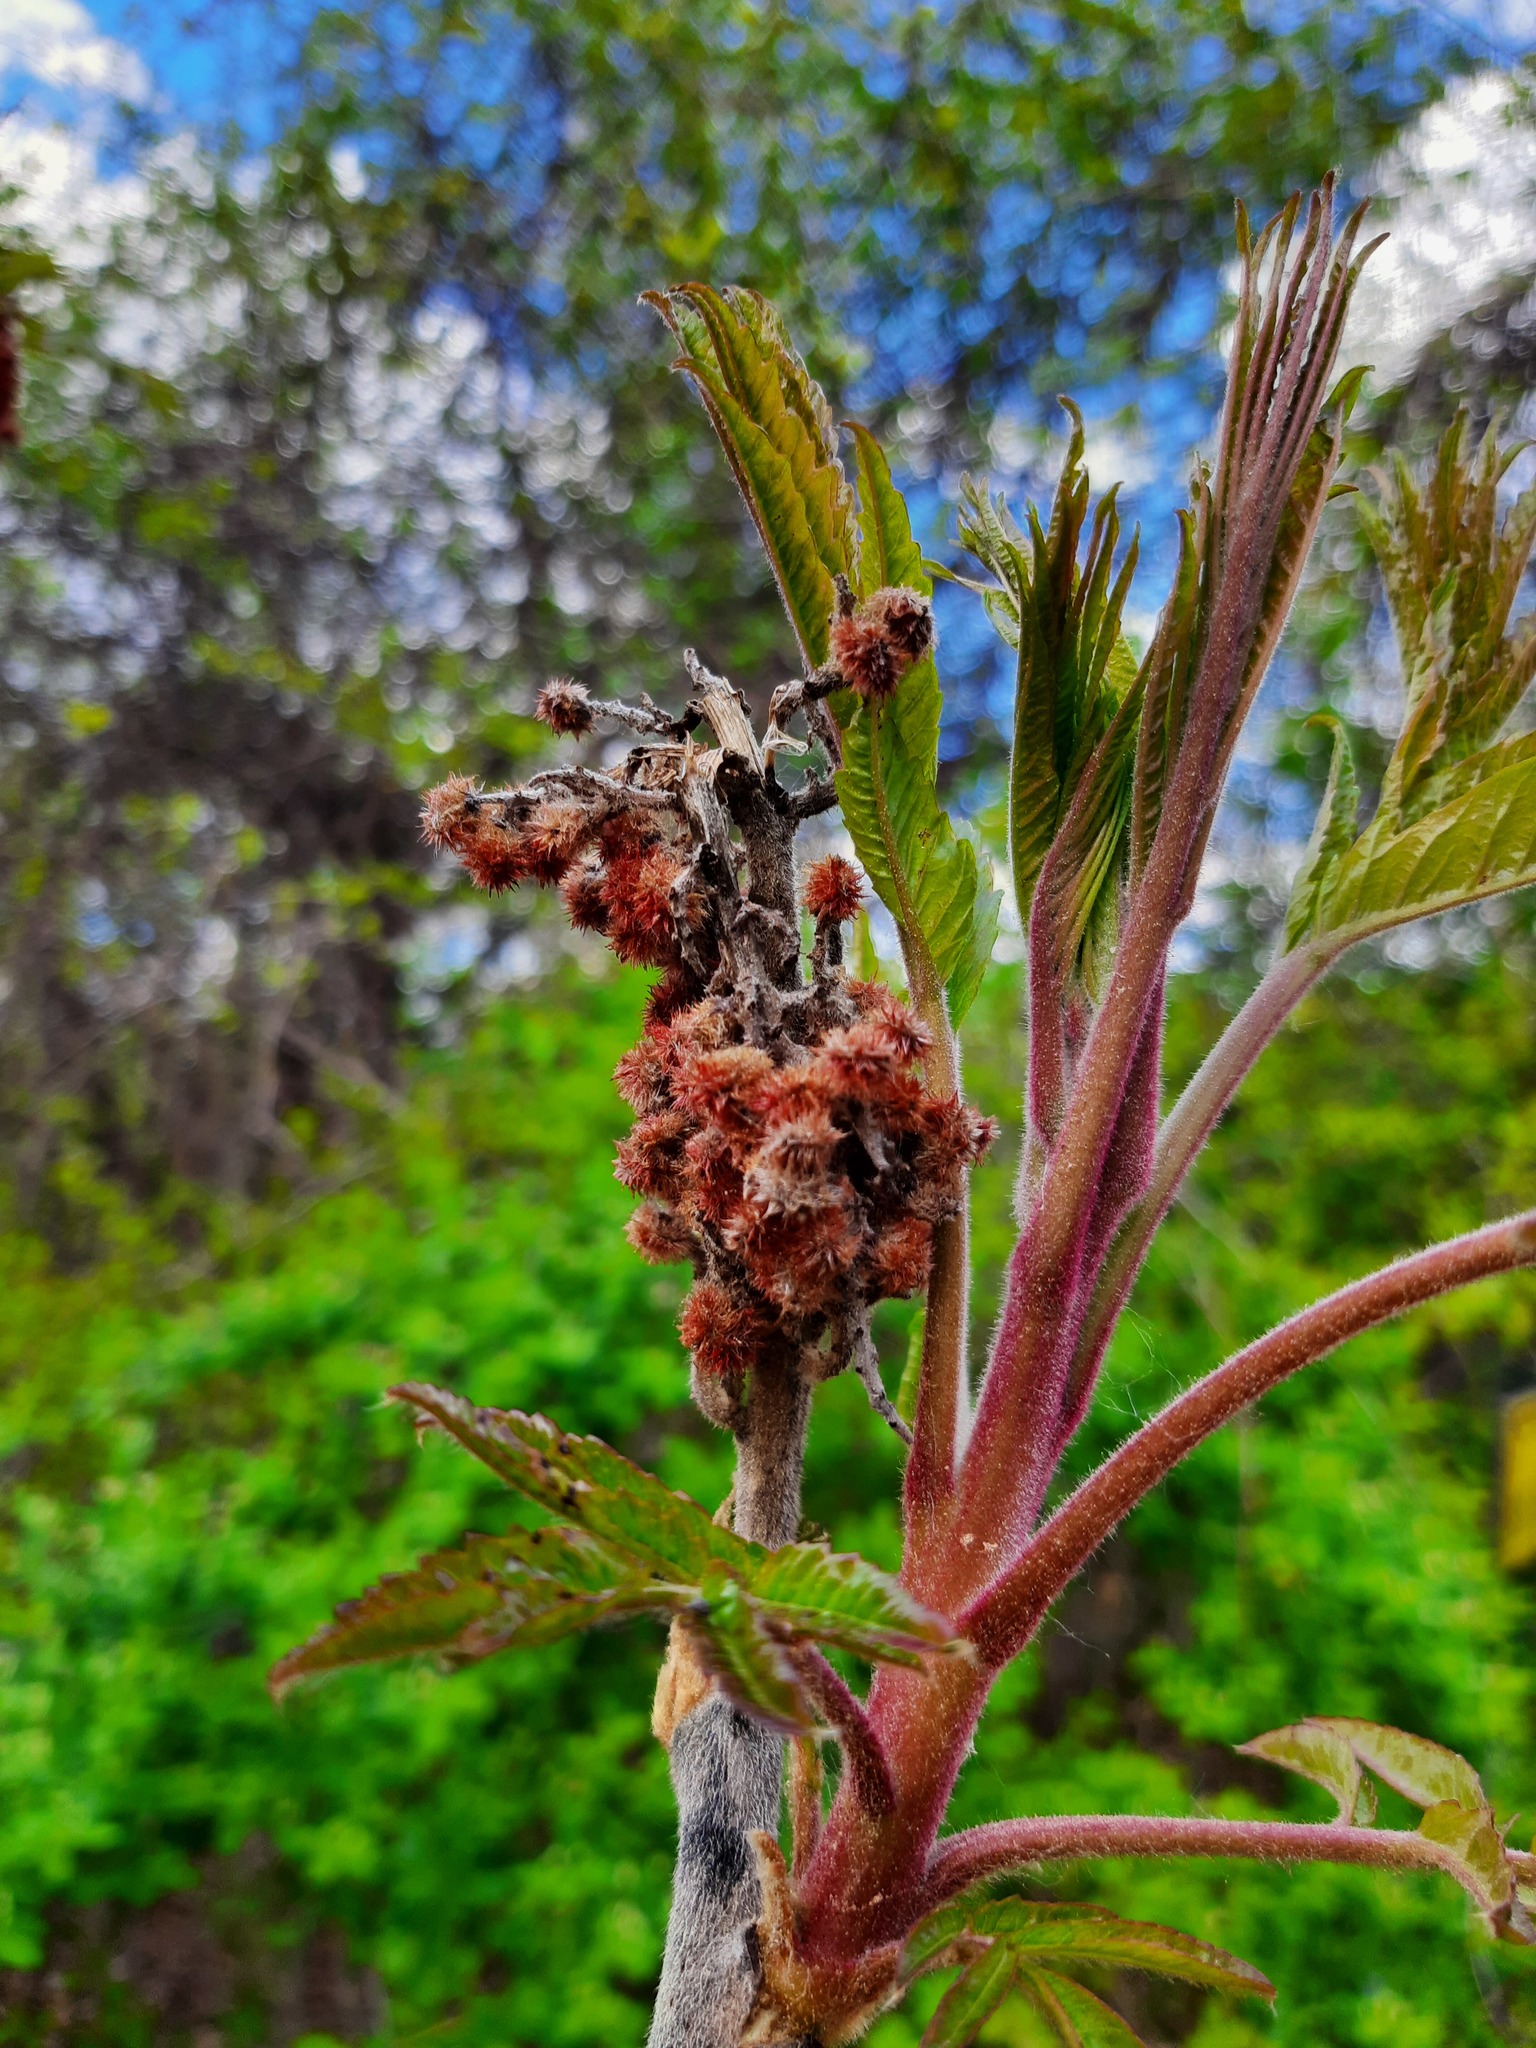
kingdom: Plantae
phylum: Tracheophyta
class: Magnoliopsida
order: Sapindales
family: Anacardiaceae
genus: Rhus
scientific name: Rhus typhina
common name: Staghorn sumac
